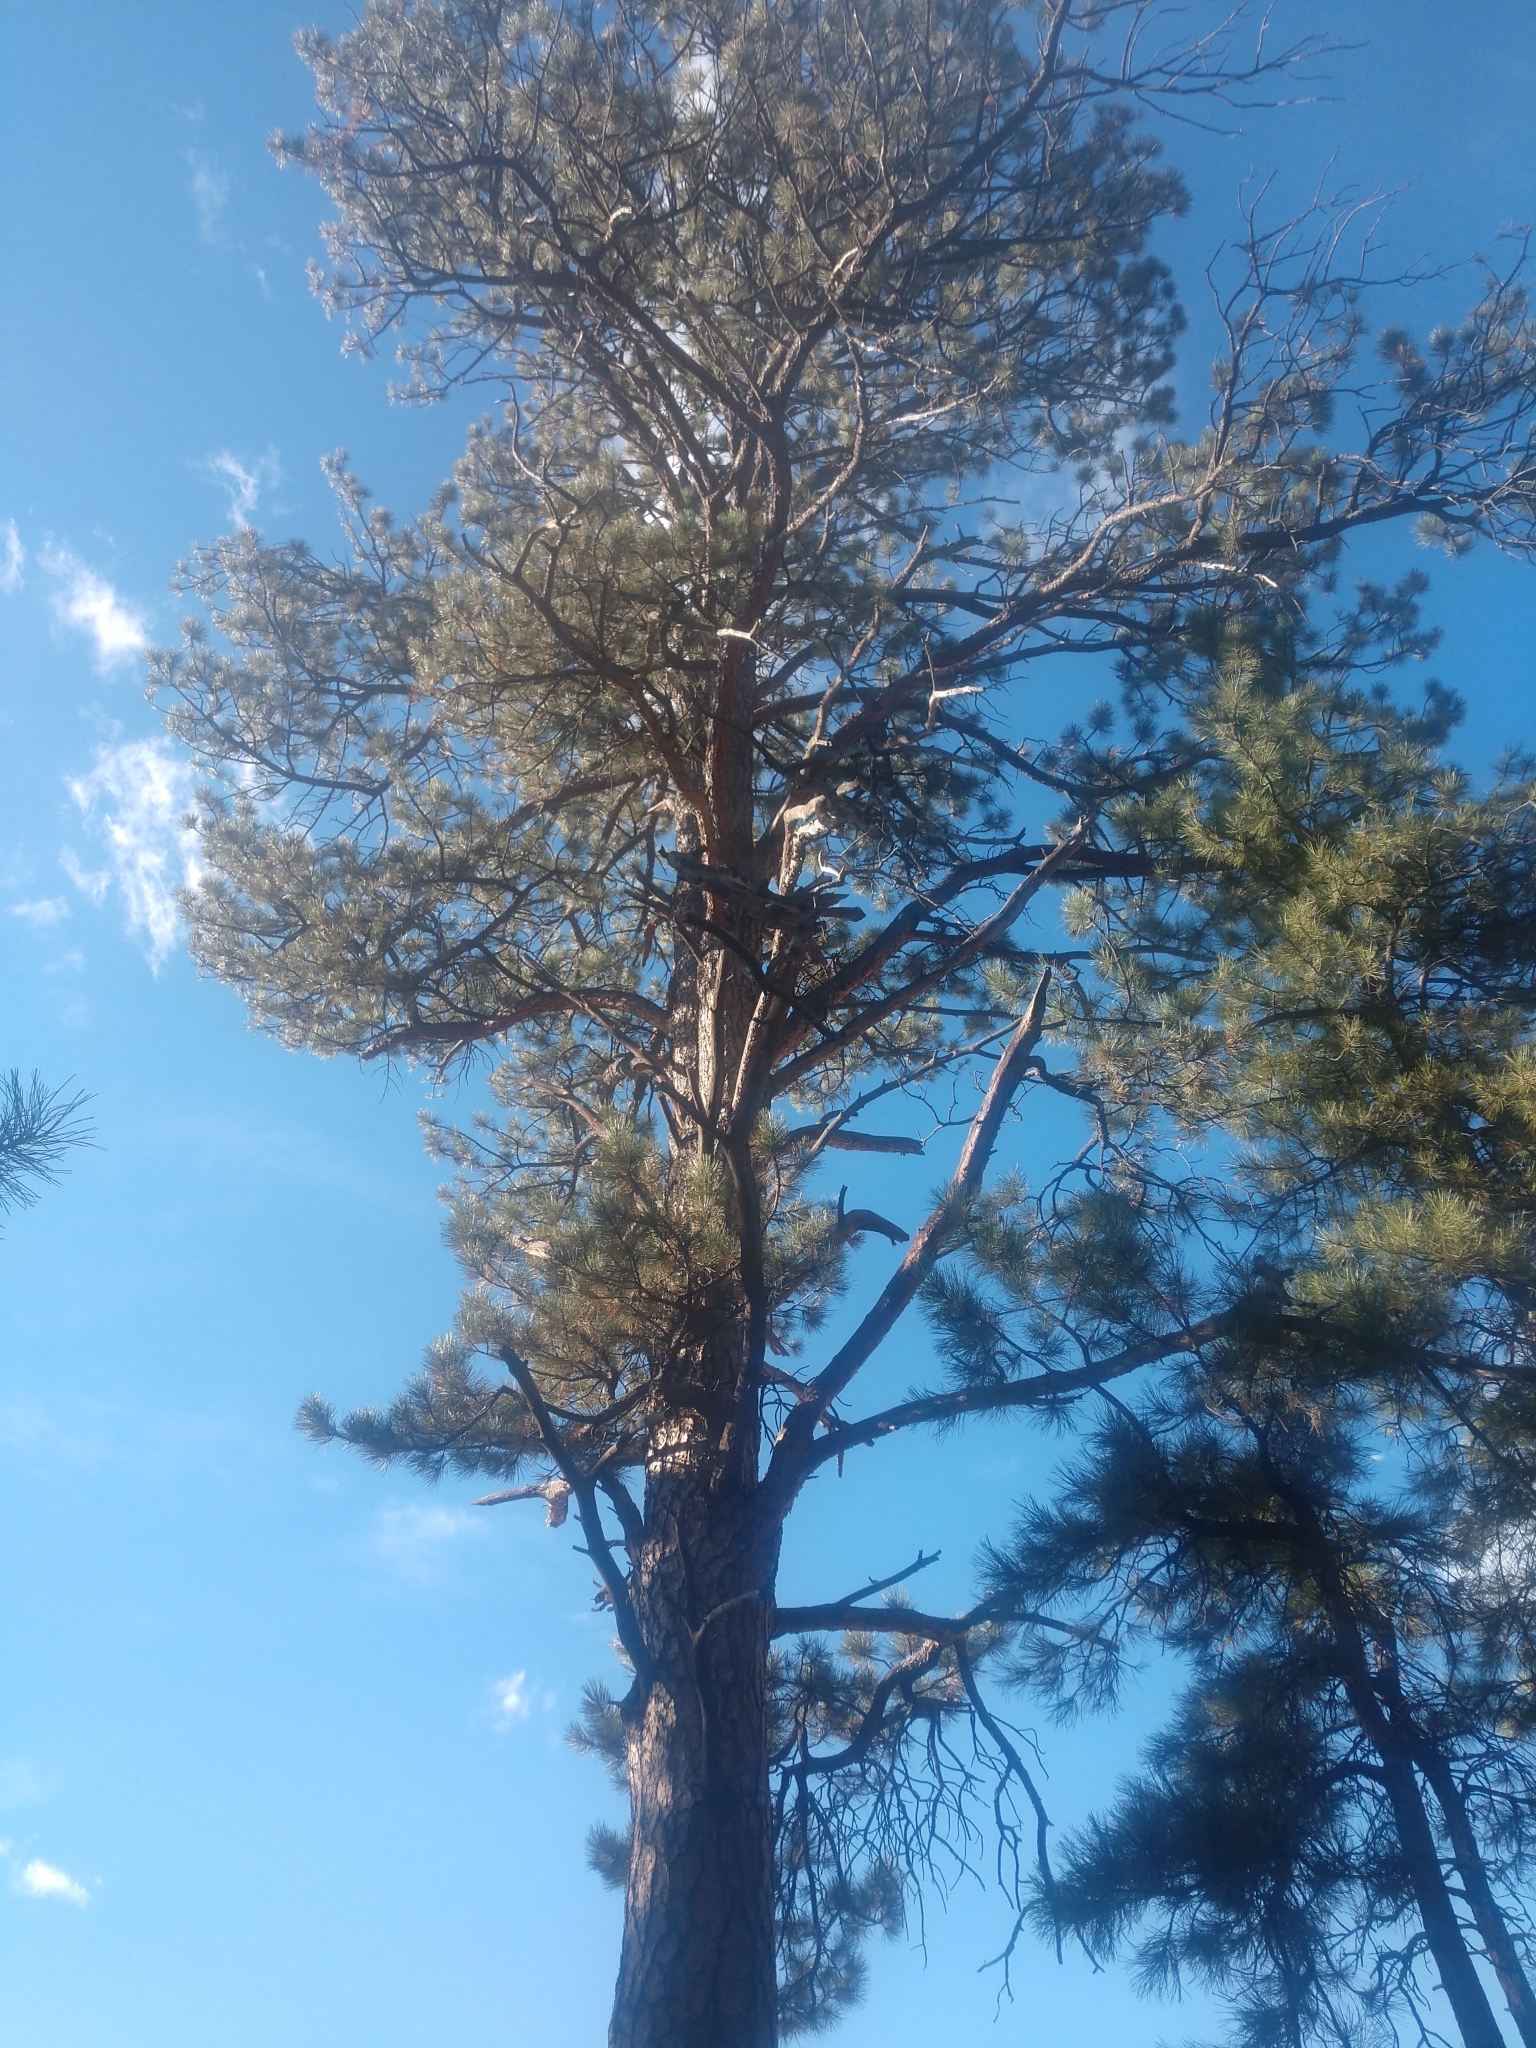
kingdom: Plantae
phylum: Tracheophyta
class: Pinopsida
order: Pinales
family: Pinaceae
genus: Pinus
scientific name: Pinus ponderosa
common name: Western yellow-pine
